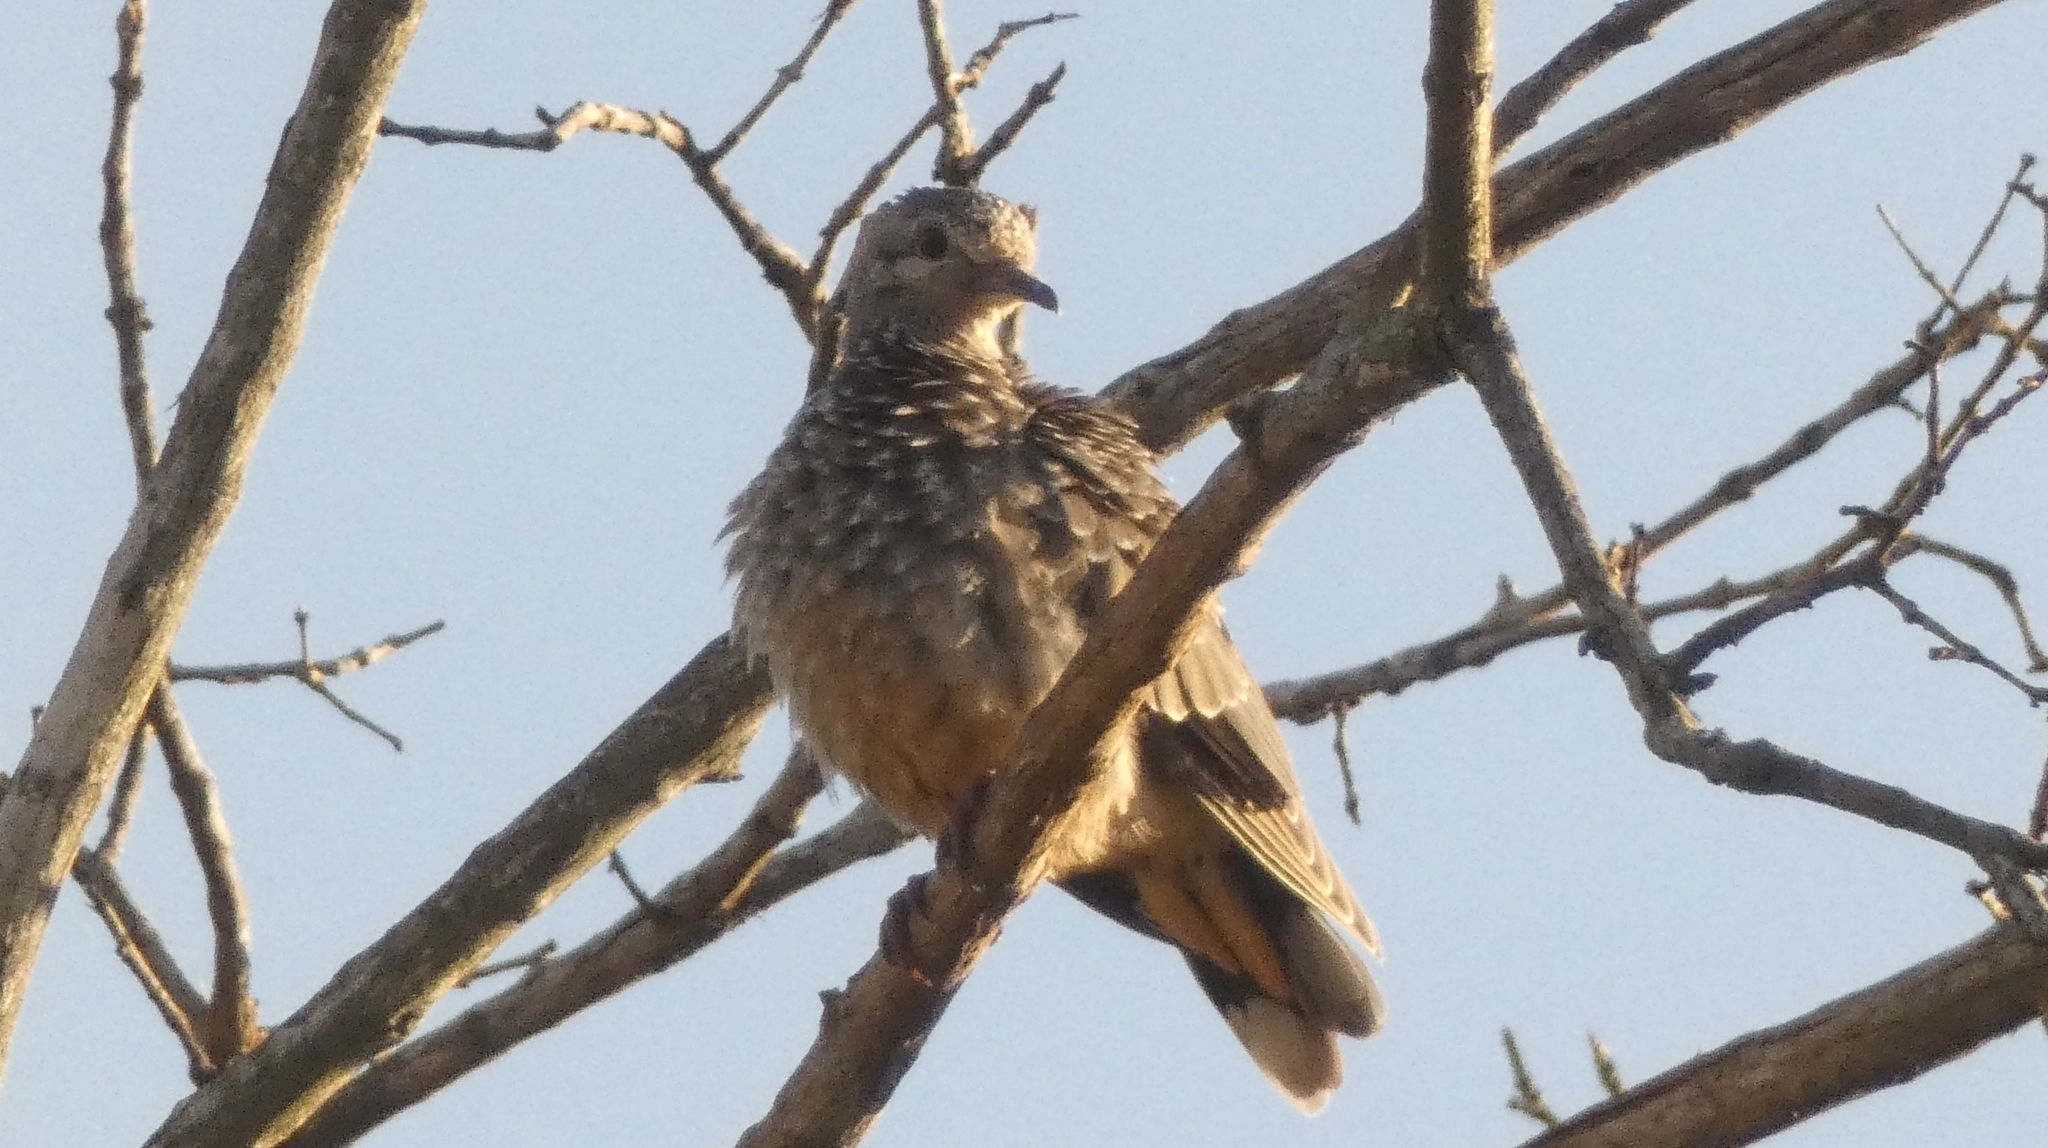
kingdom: Animalia
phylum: Chordata
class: Aves
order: Columbiformes
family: Columbidae
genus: Zenaida
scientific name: Zenaida auriculata
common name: Eared dove
